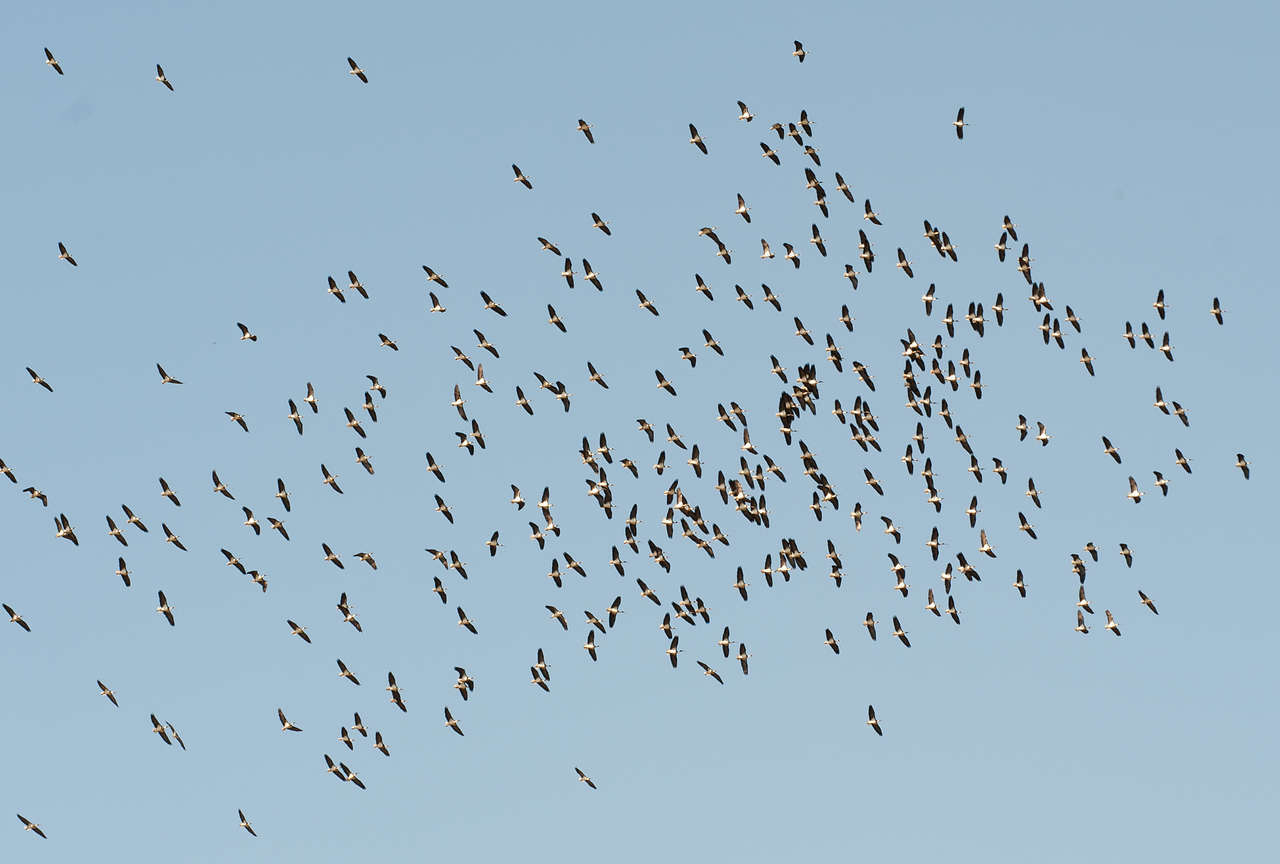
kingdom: Animalia
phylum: Chordata
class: Aves
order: Pelecaniformes
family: Threskiornithidae
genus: Threskiornis
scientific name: Threskiornis spinicollis
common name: Straw-necked ibis
